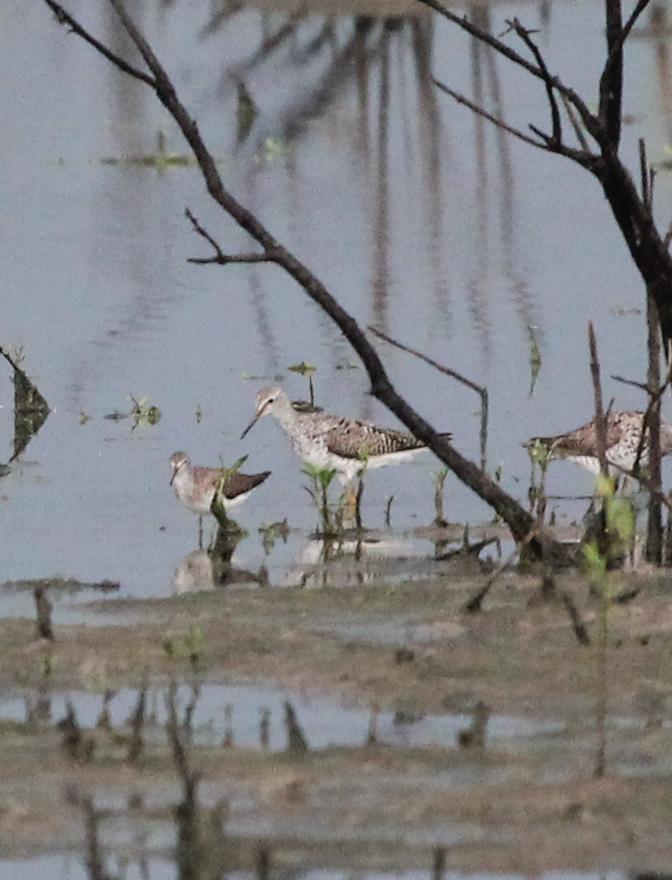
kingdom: Animalia
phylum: Chordata
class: Aves
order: Charadriiformes
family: Scolopacidae
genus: Tringa
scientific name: Tringa flavipes
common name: Lesser yellowlegs
